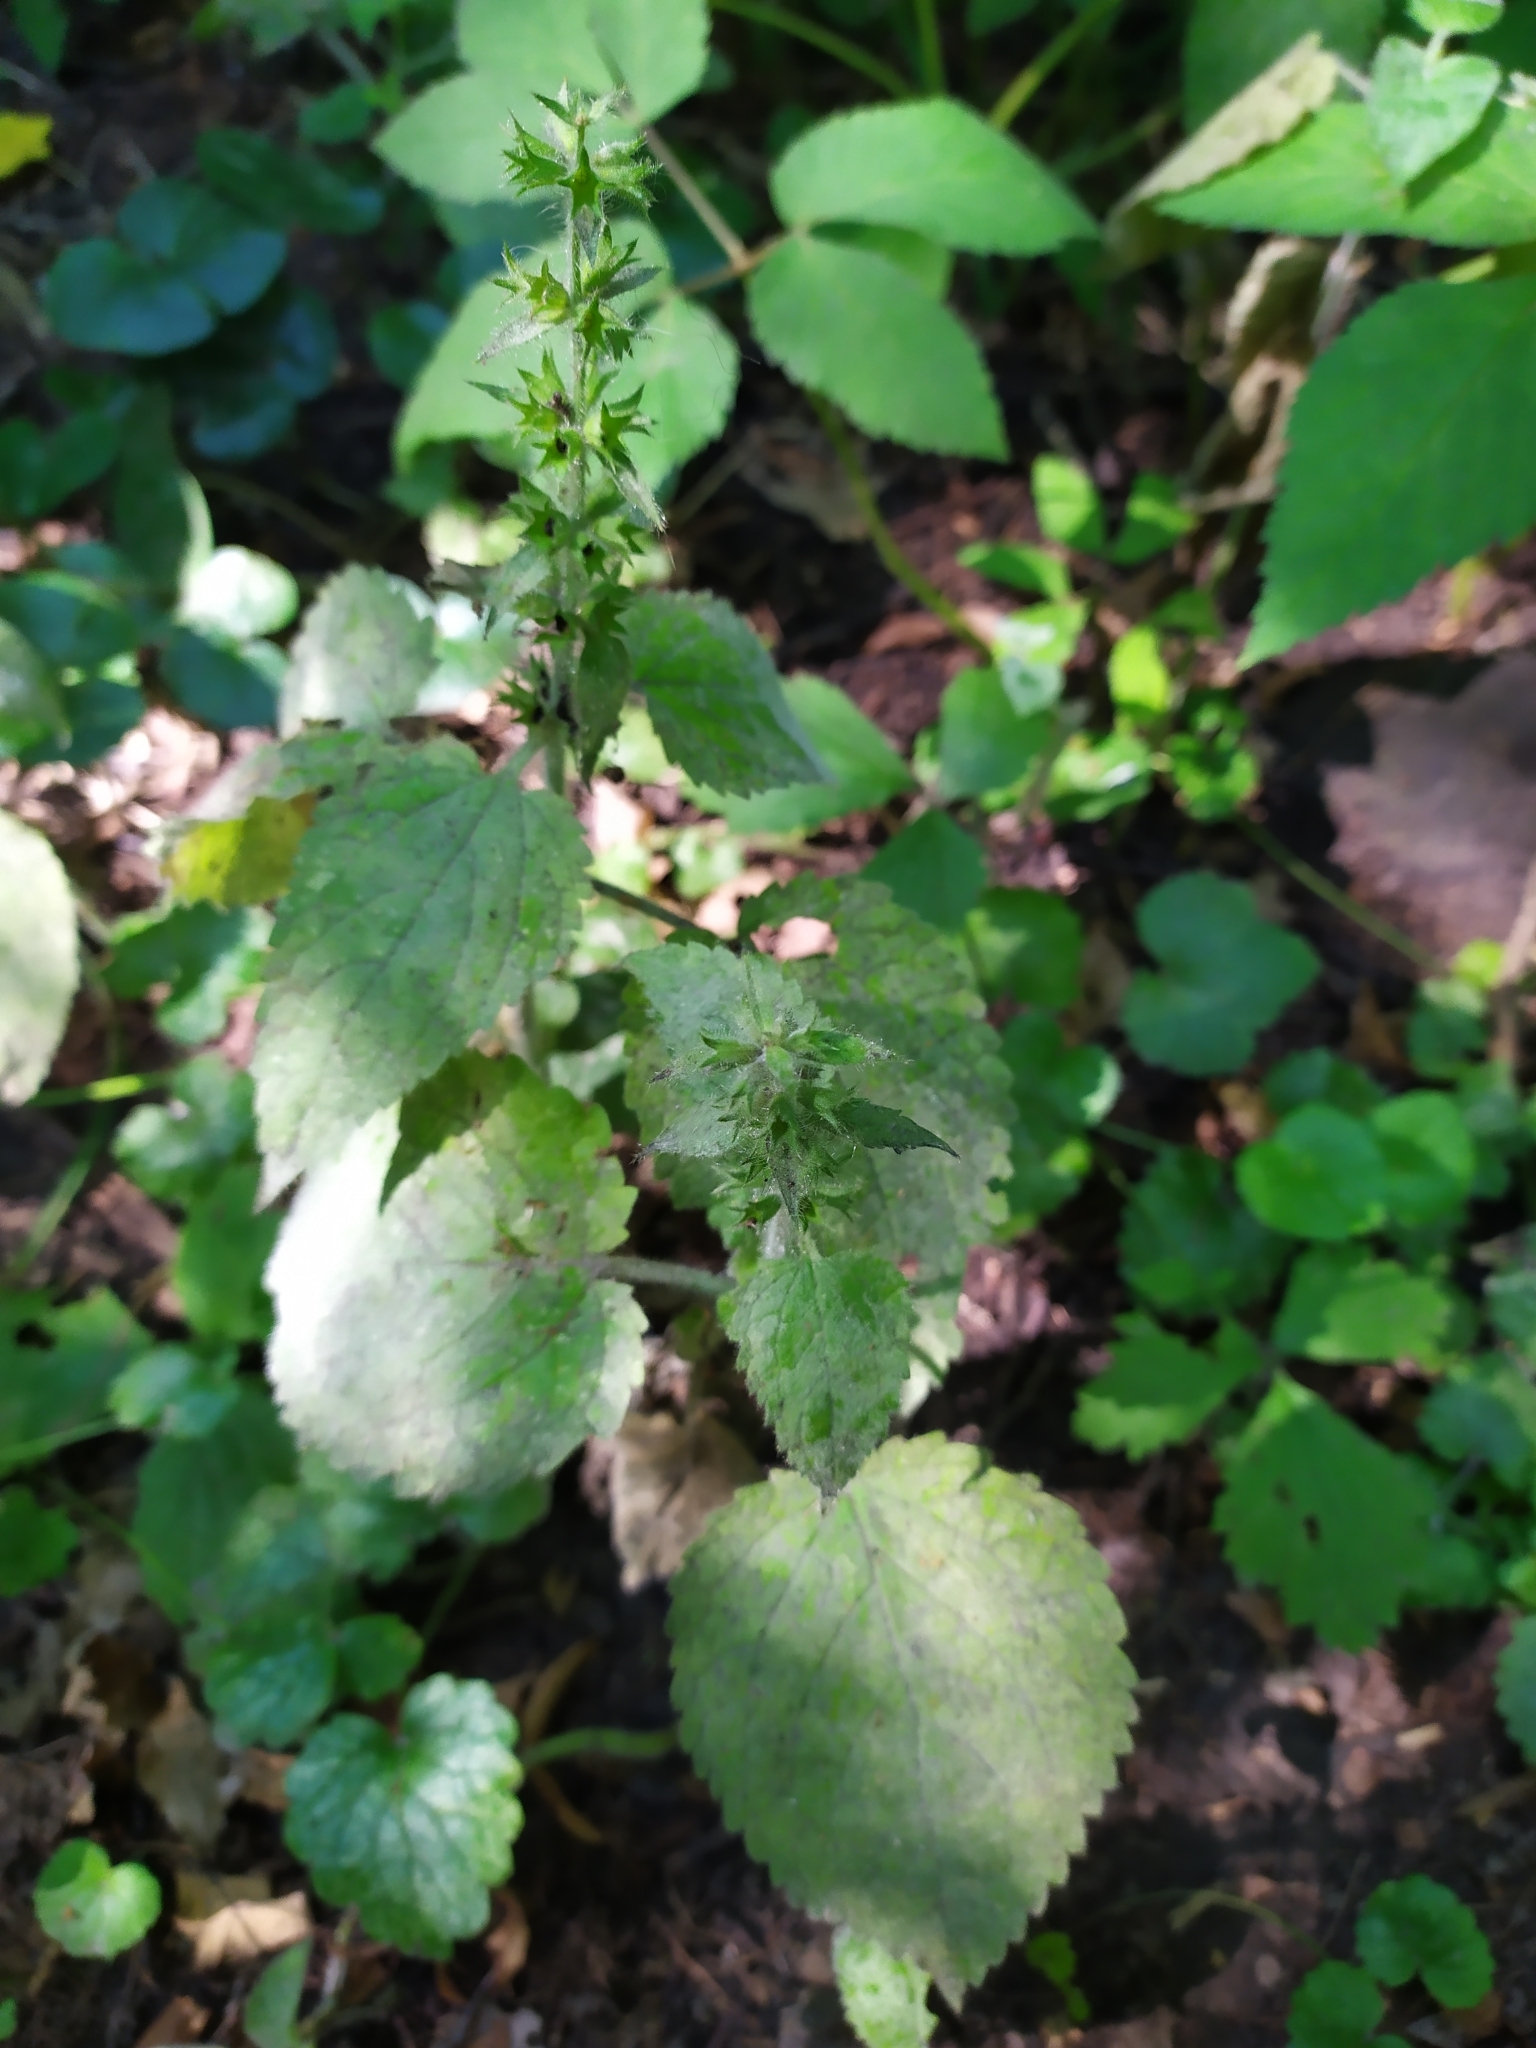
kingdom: Plantae
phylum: Tracheophyta
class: Magnoliopsida
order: Lamiales
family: Lamiaceae
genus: Stachys
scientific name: Stachys sylvatica
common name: Hedge woundwort
